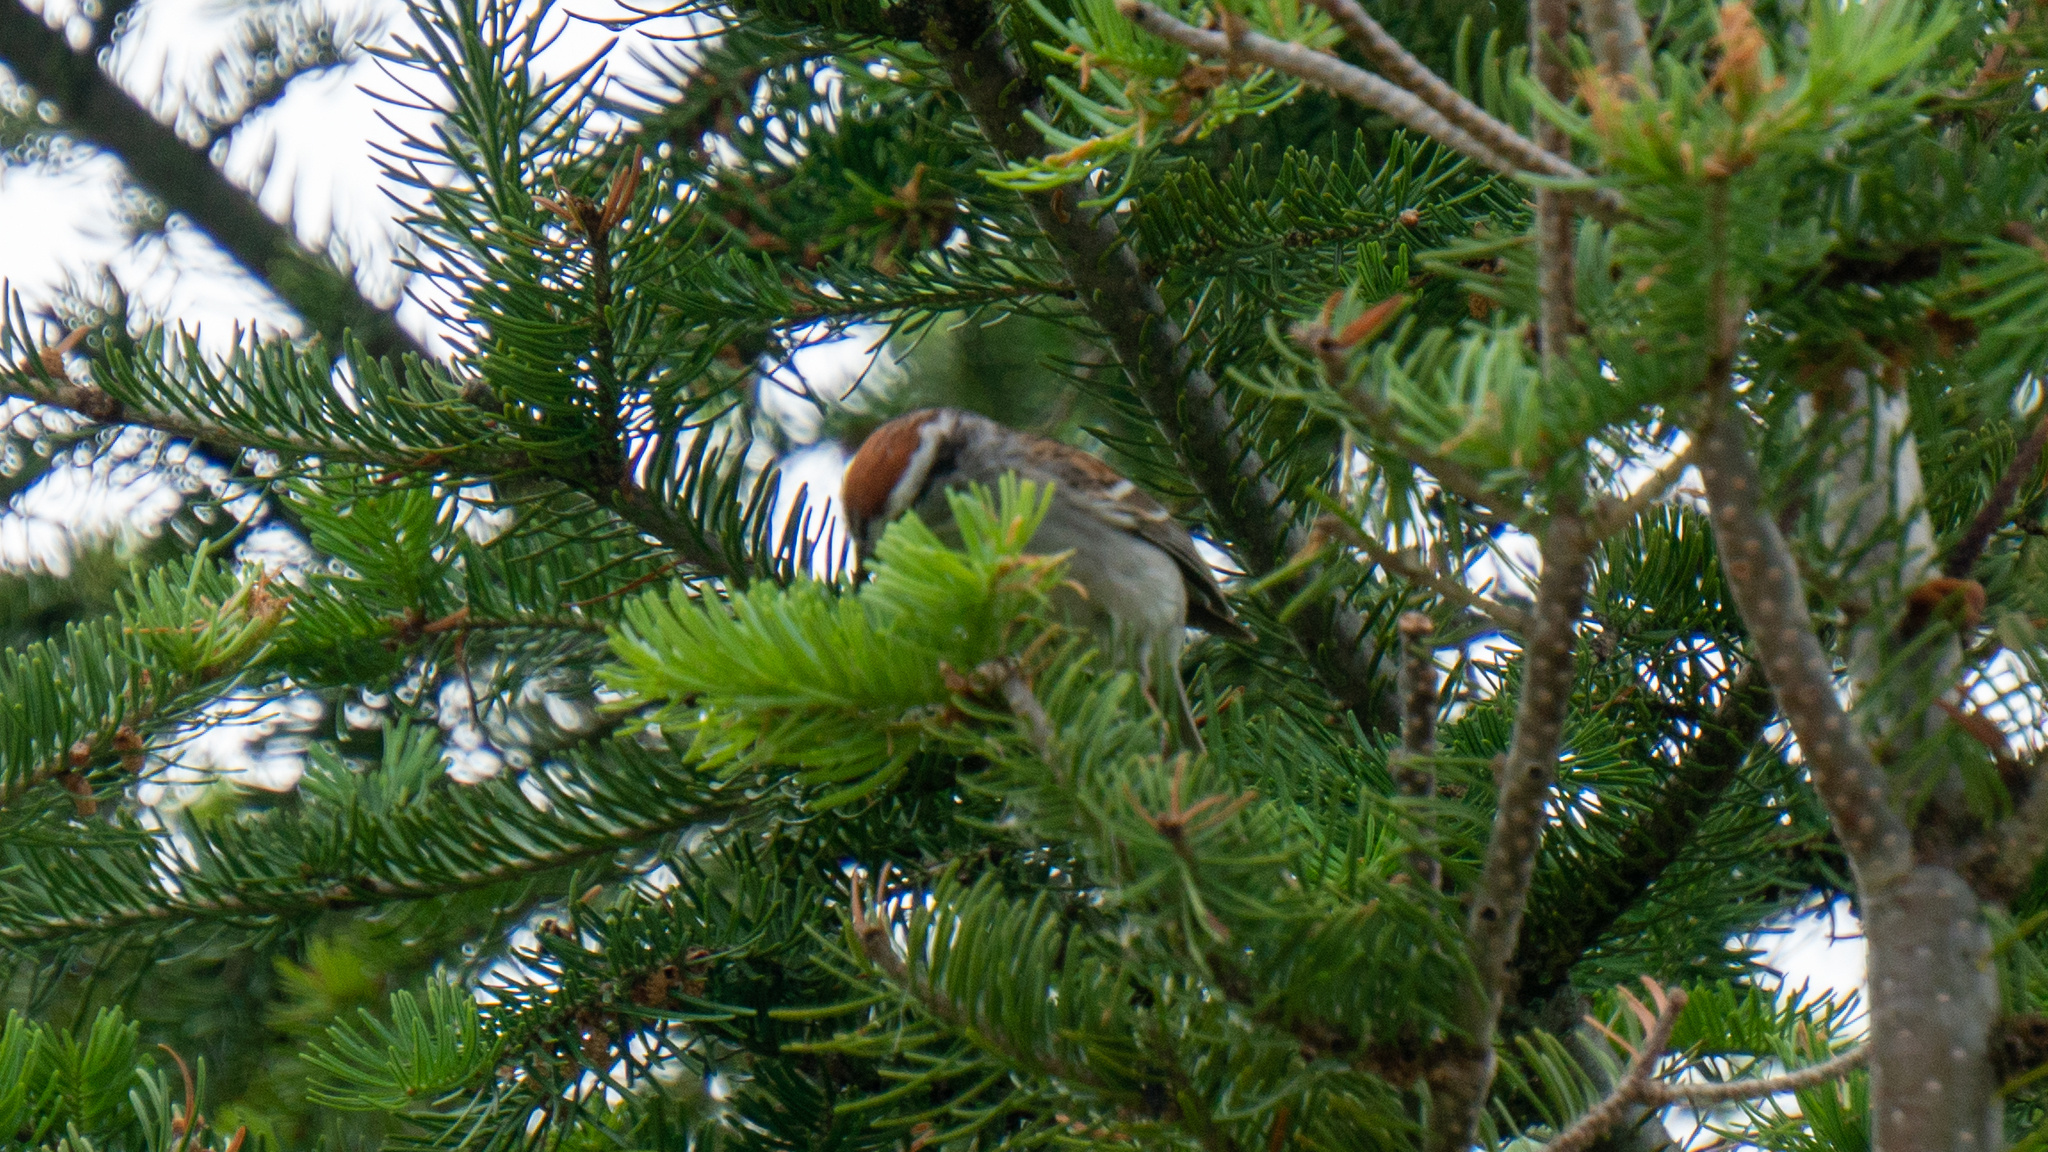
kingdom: Animalia
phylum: Chordata
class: Aves
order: Passeriformes
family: Passerellidae
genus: Spizella
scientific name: Spizella passerina
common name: Chipping sparrow
